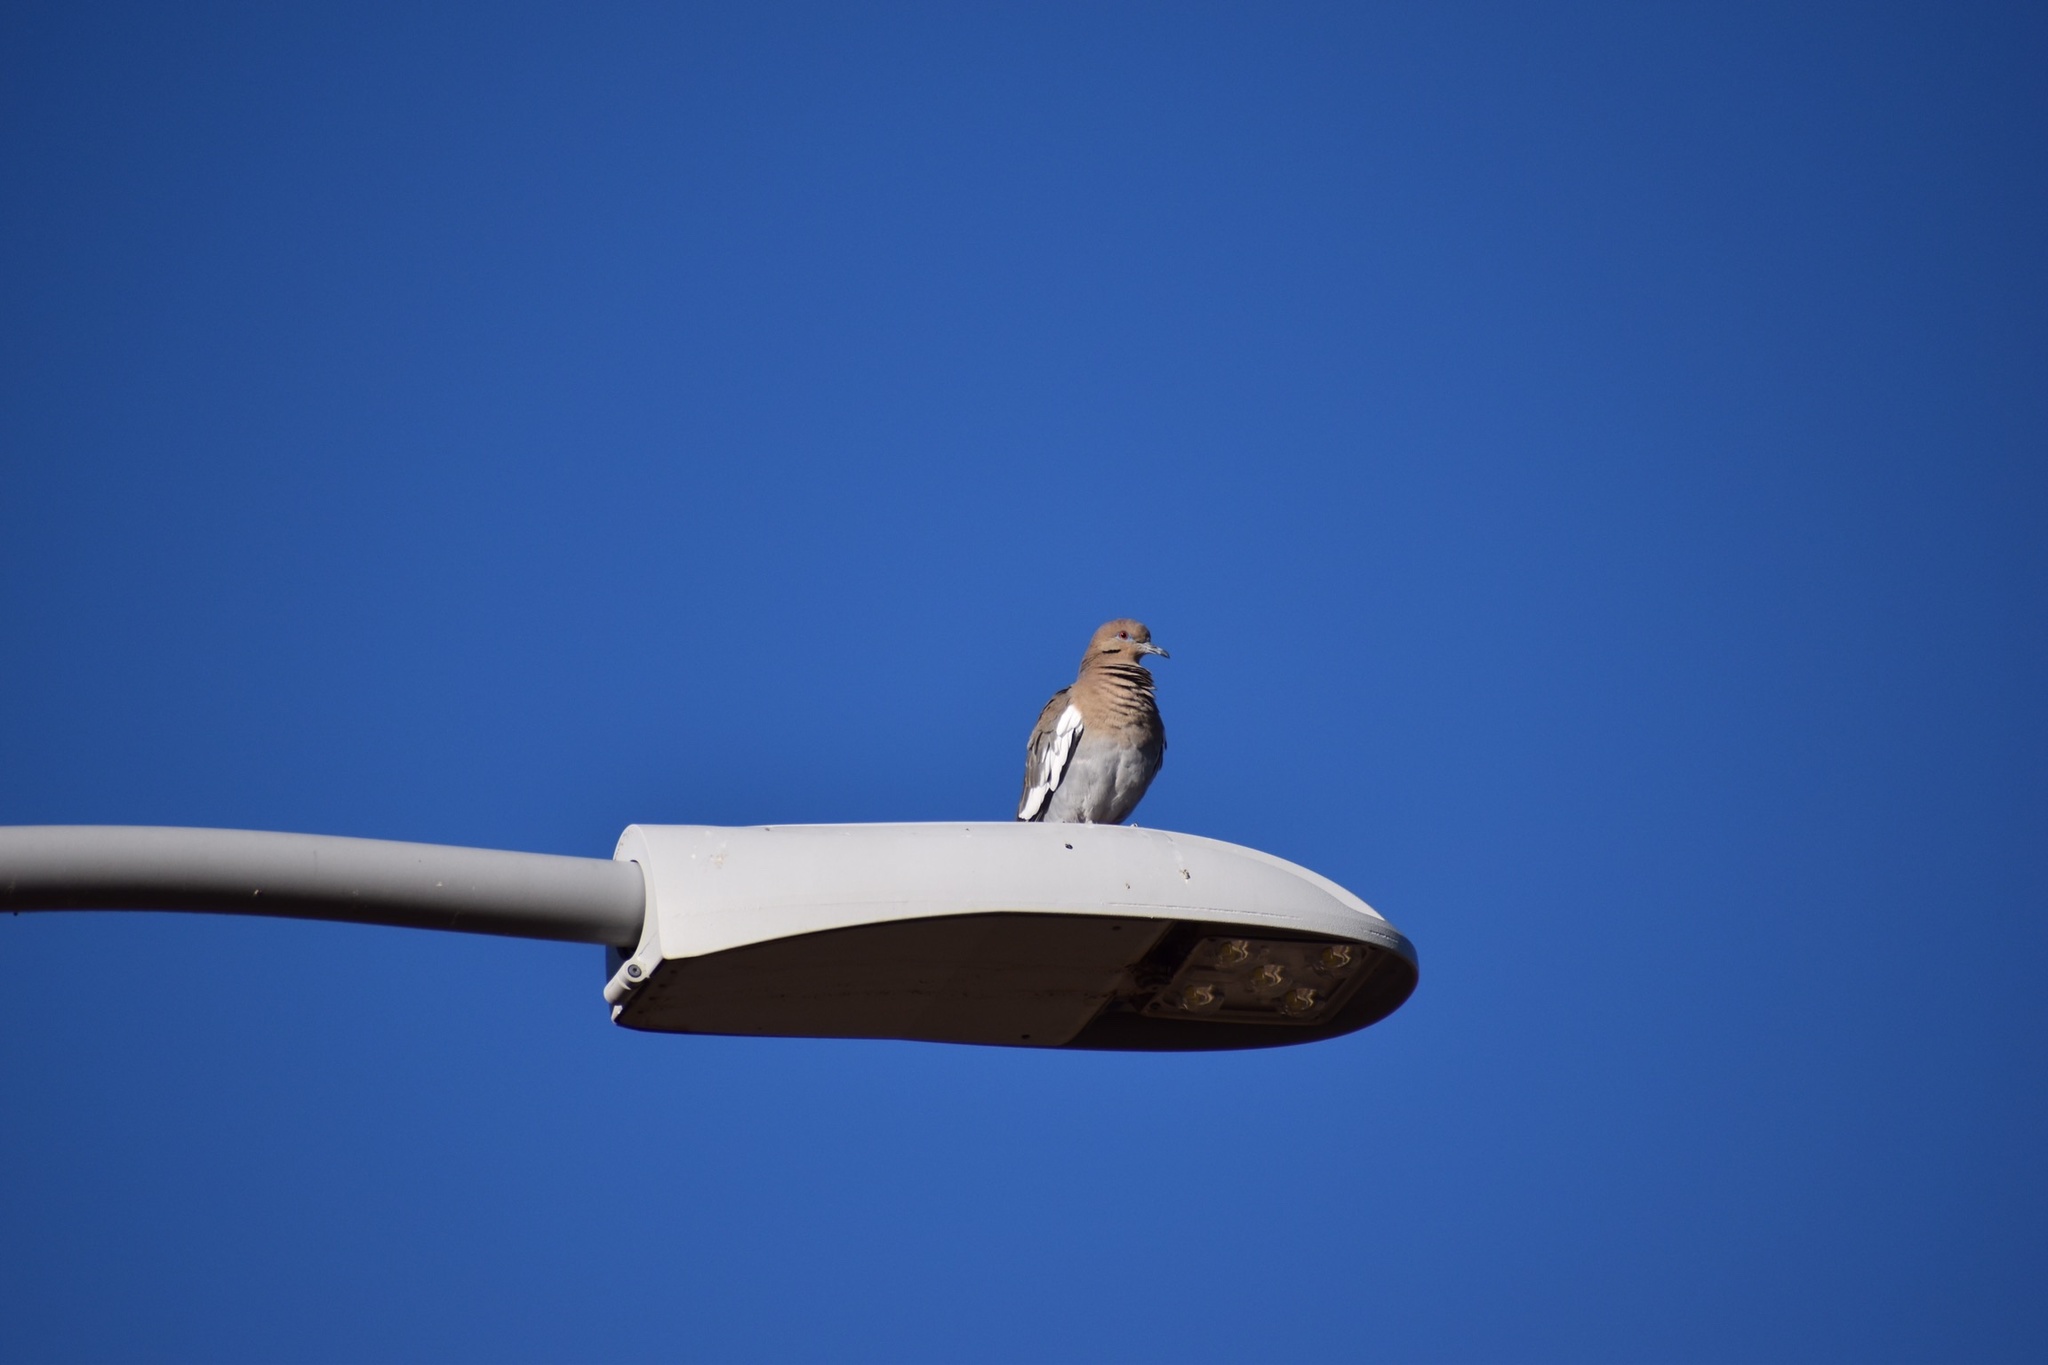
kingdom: Animalia
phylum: Chordata
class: Aves
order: Columbiformes
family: Columbidae
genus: Zenaida
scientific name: Zenaida asiatica
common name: White-winged dove
